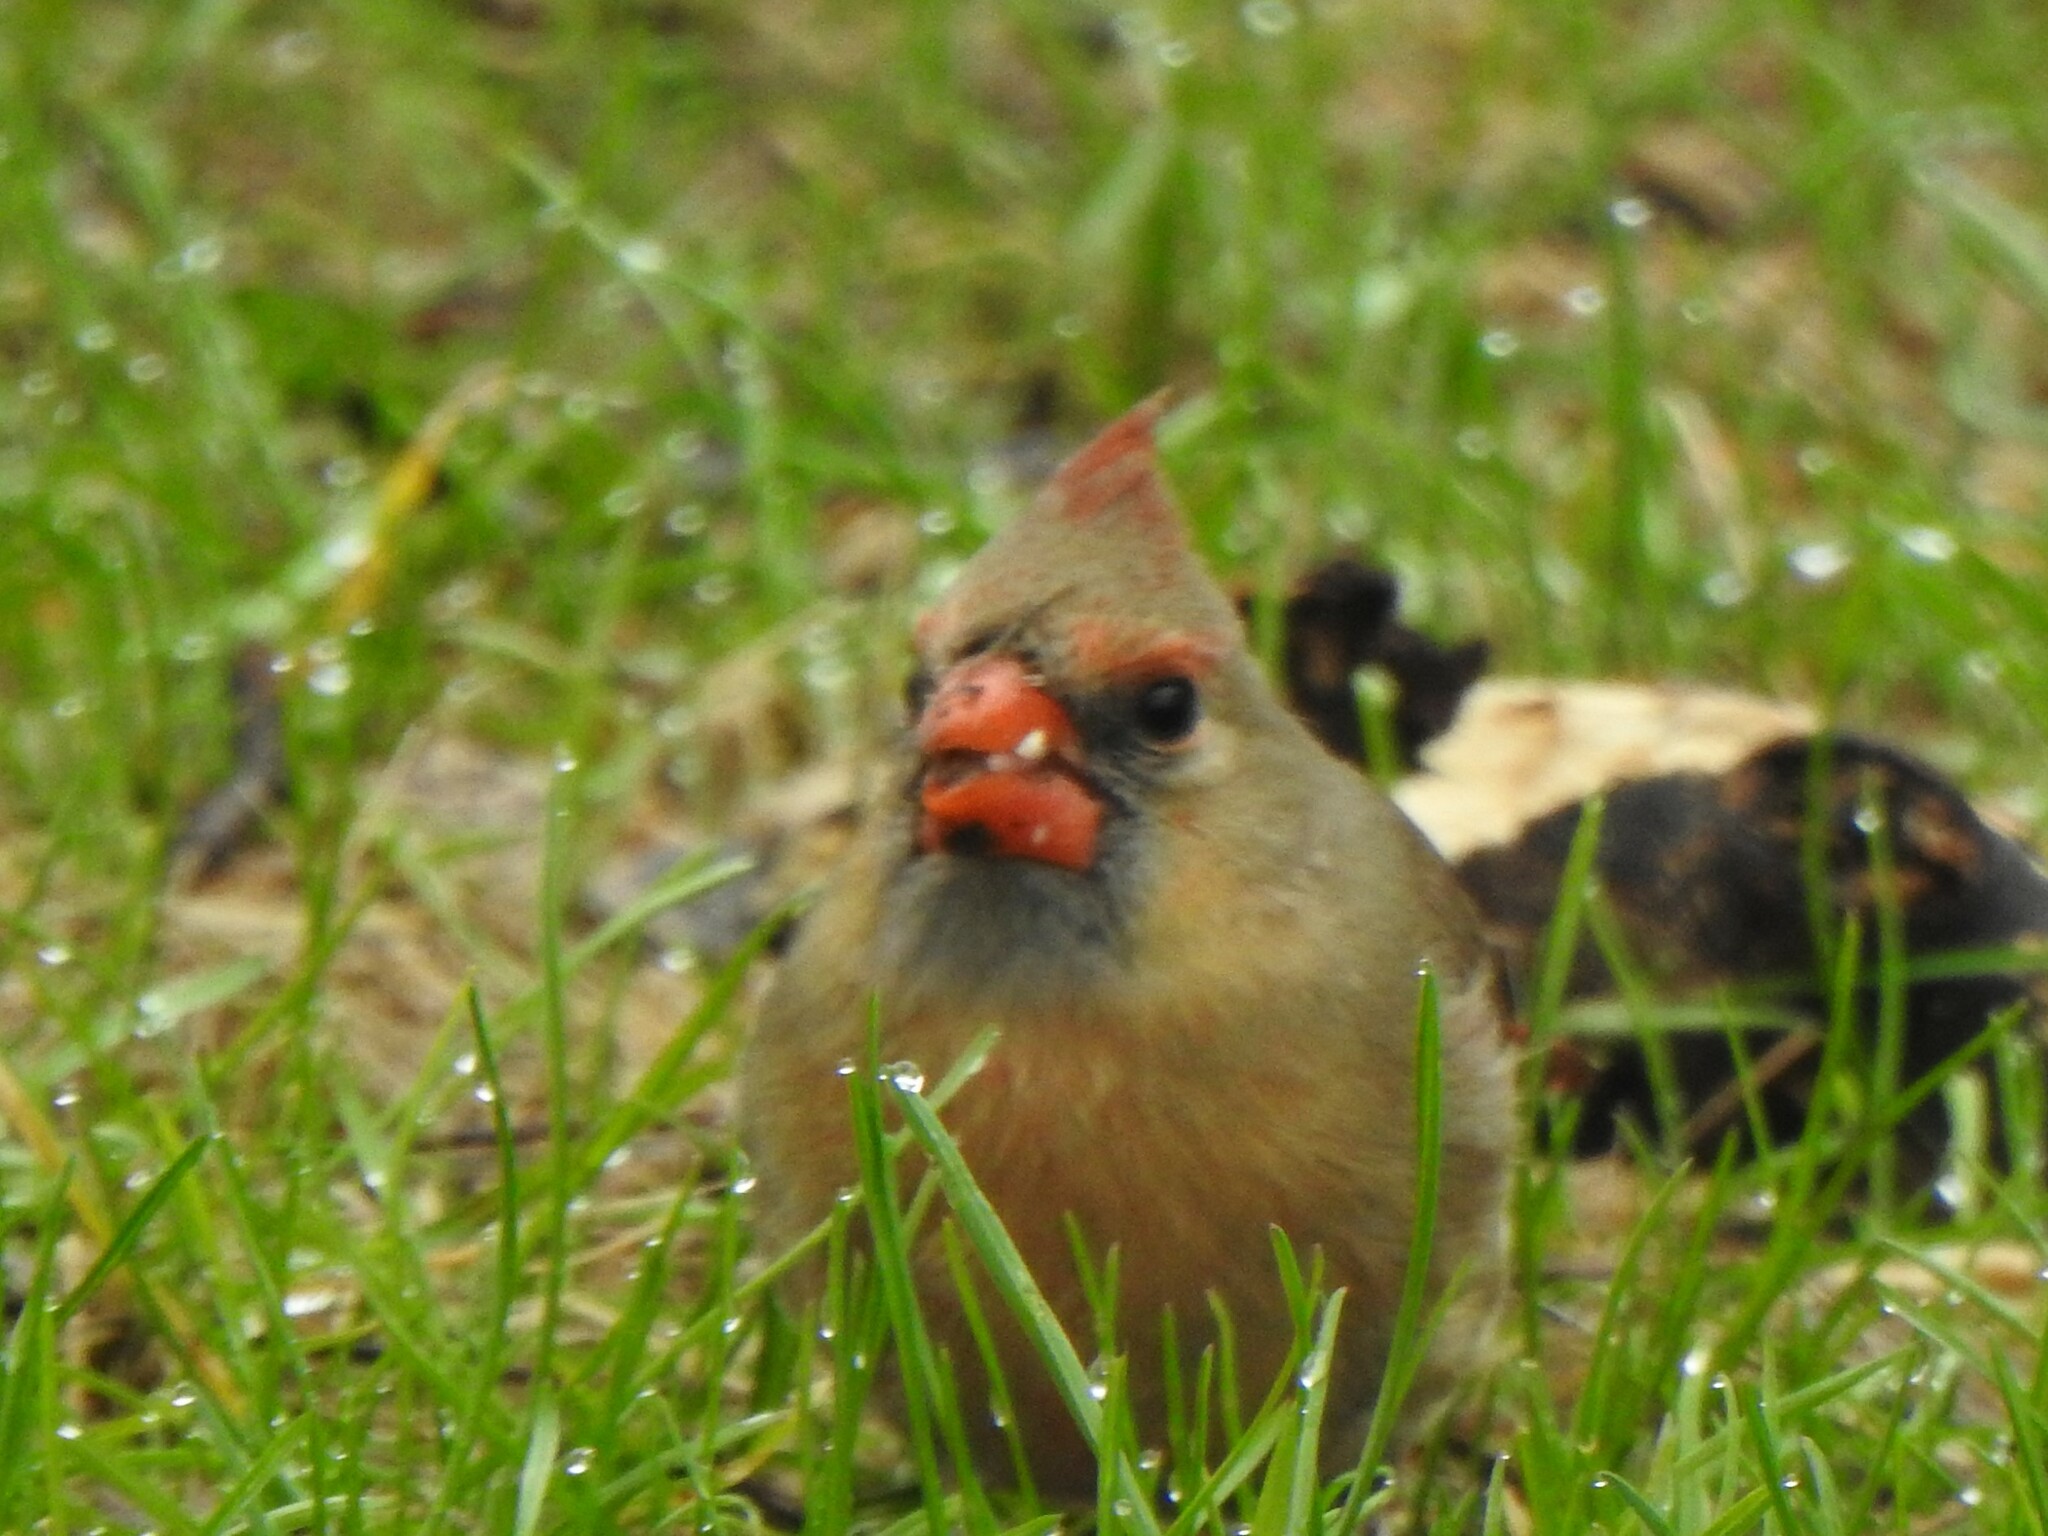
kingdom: Animalia
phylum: Chordata
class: Aves
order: Passeriformes
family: Cardinalidae
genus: Cardinalis
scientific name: Cardinalis cardinalis
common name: Northern cardinal
